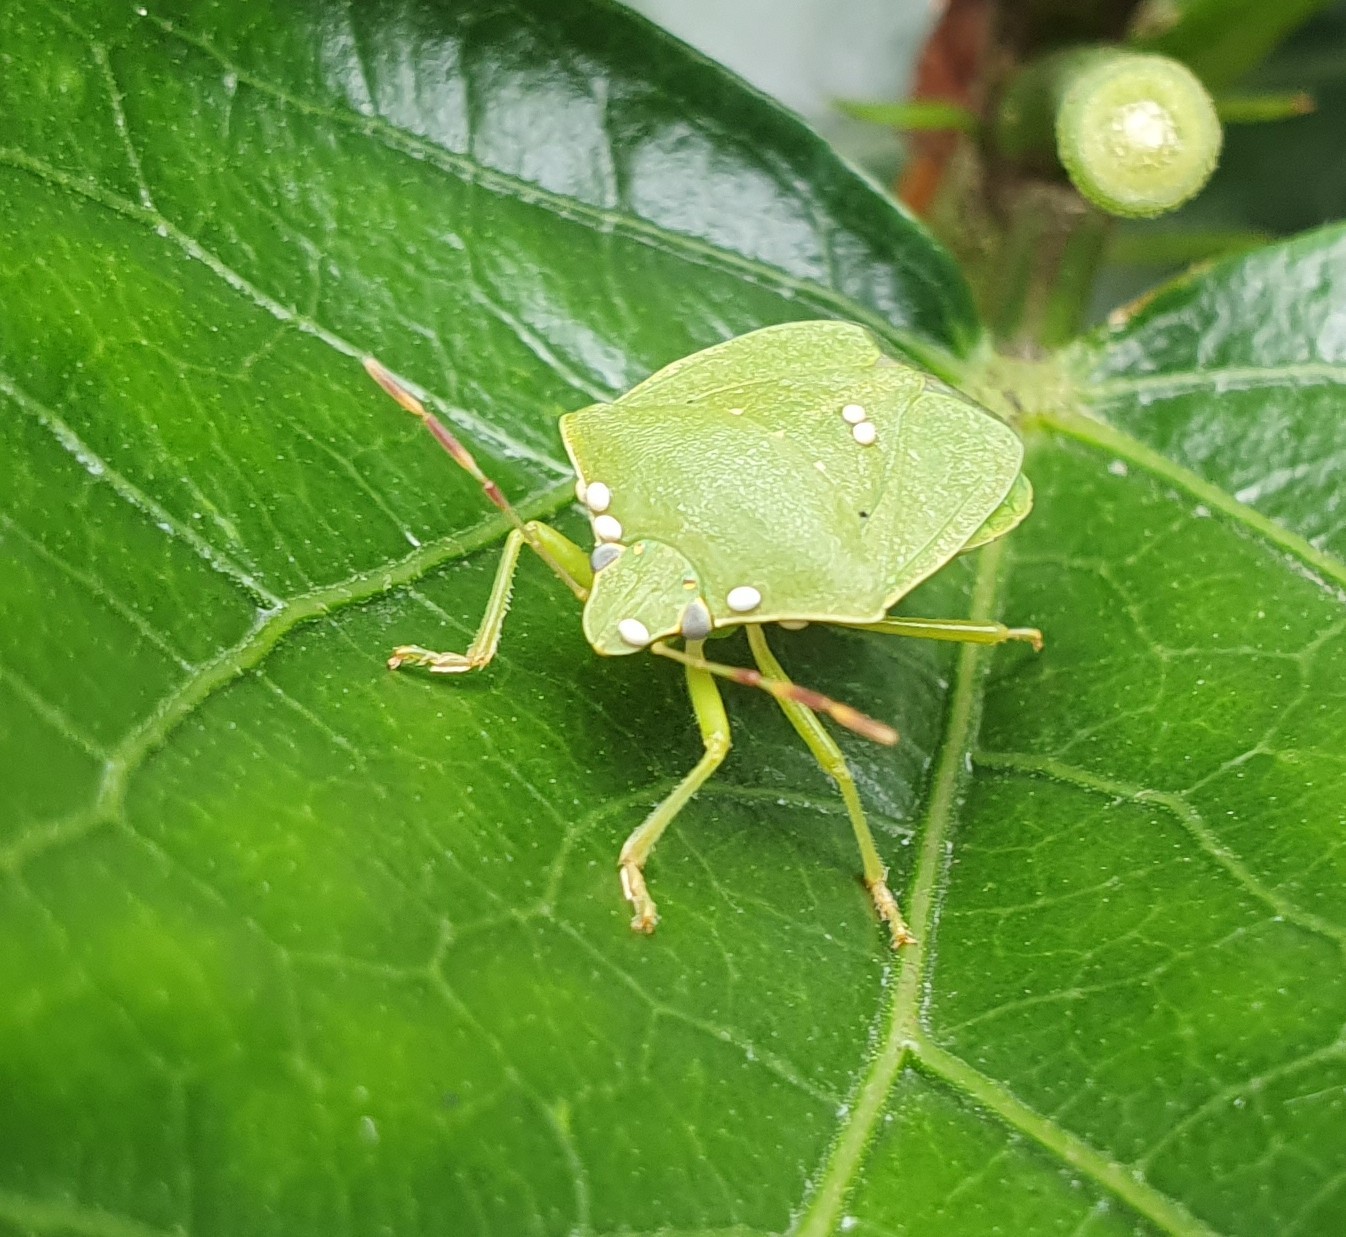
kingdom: Animalia
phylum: Arthropoda
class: Insecta
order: Hemiptera
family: Pentatomidae
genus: Nezara
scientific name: Nezara viridula
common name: Southern green stink bug
